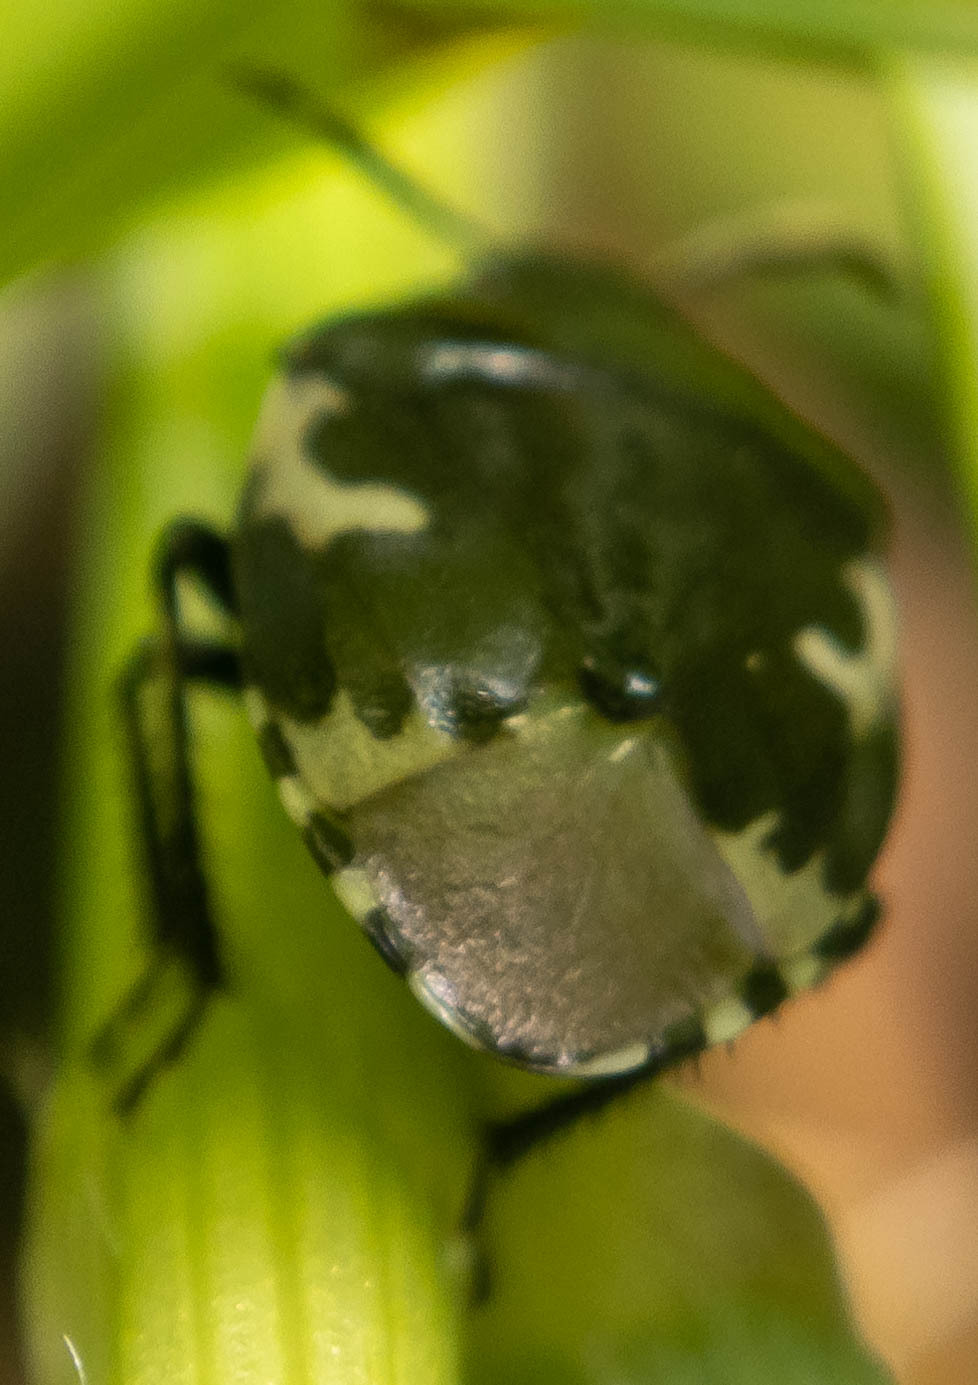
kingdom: Animalia
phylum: Arthropoda
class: Insecta
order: Hemiptera
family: Cydnidae
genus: Tritomegas
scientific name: Tritomegas bicolor
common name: Pied shieldbug
